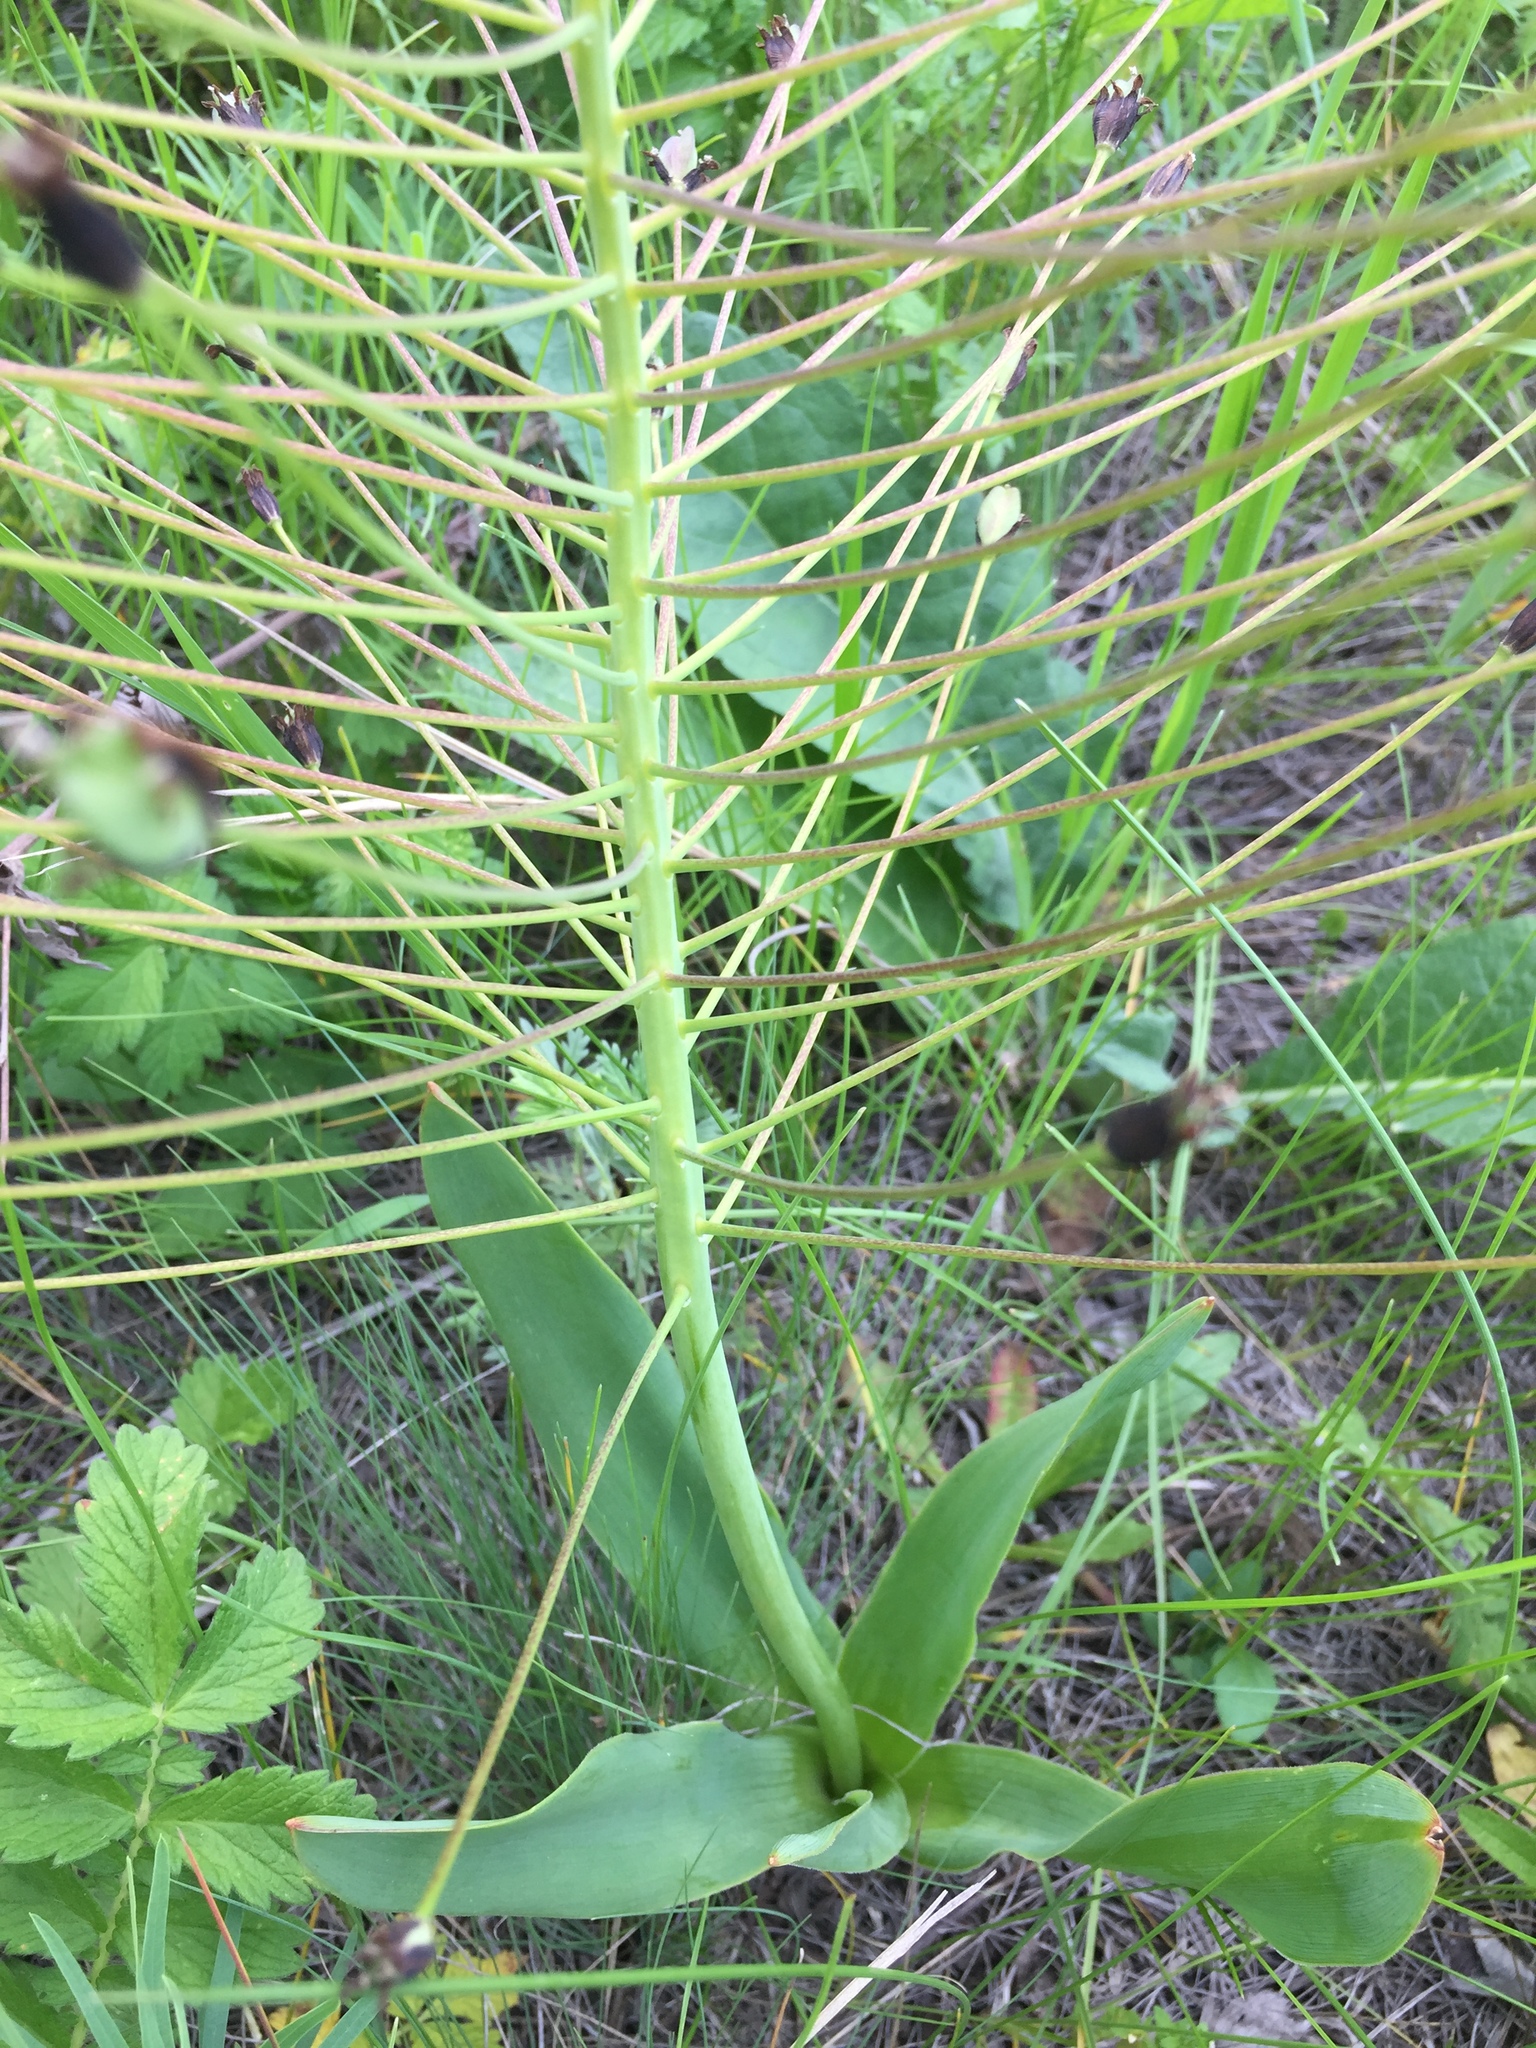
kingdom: Plantae
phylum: Tracheophyta
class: Liliopsida
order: Asparagales
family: Asparagaceae
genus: Bellevalia
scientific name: Bellevalia speciosa
